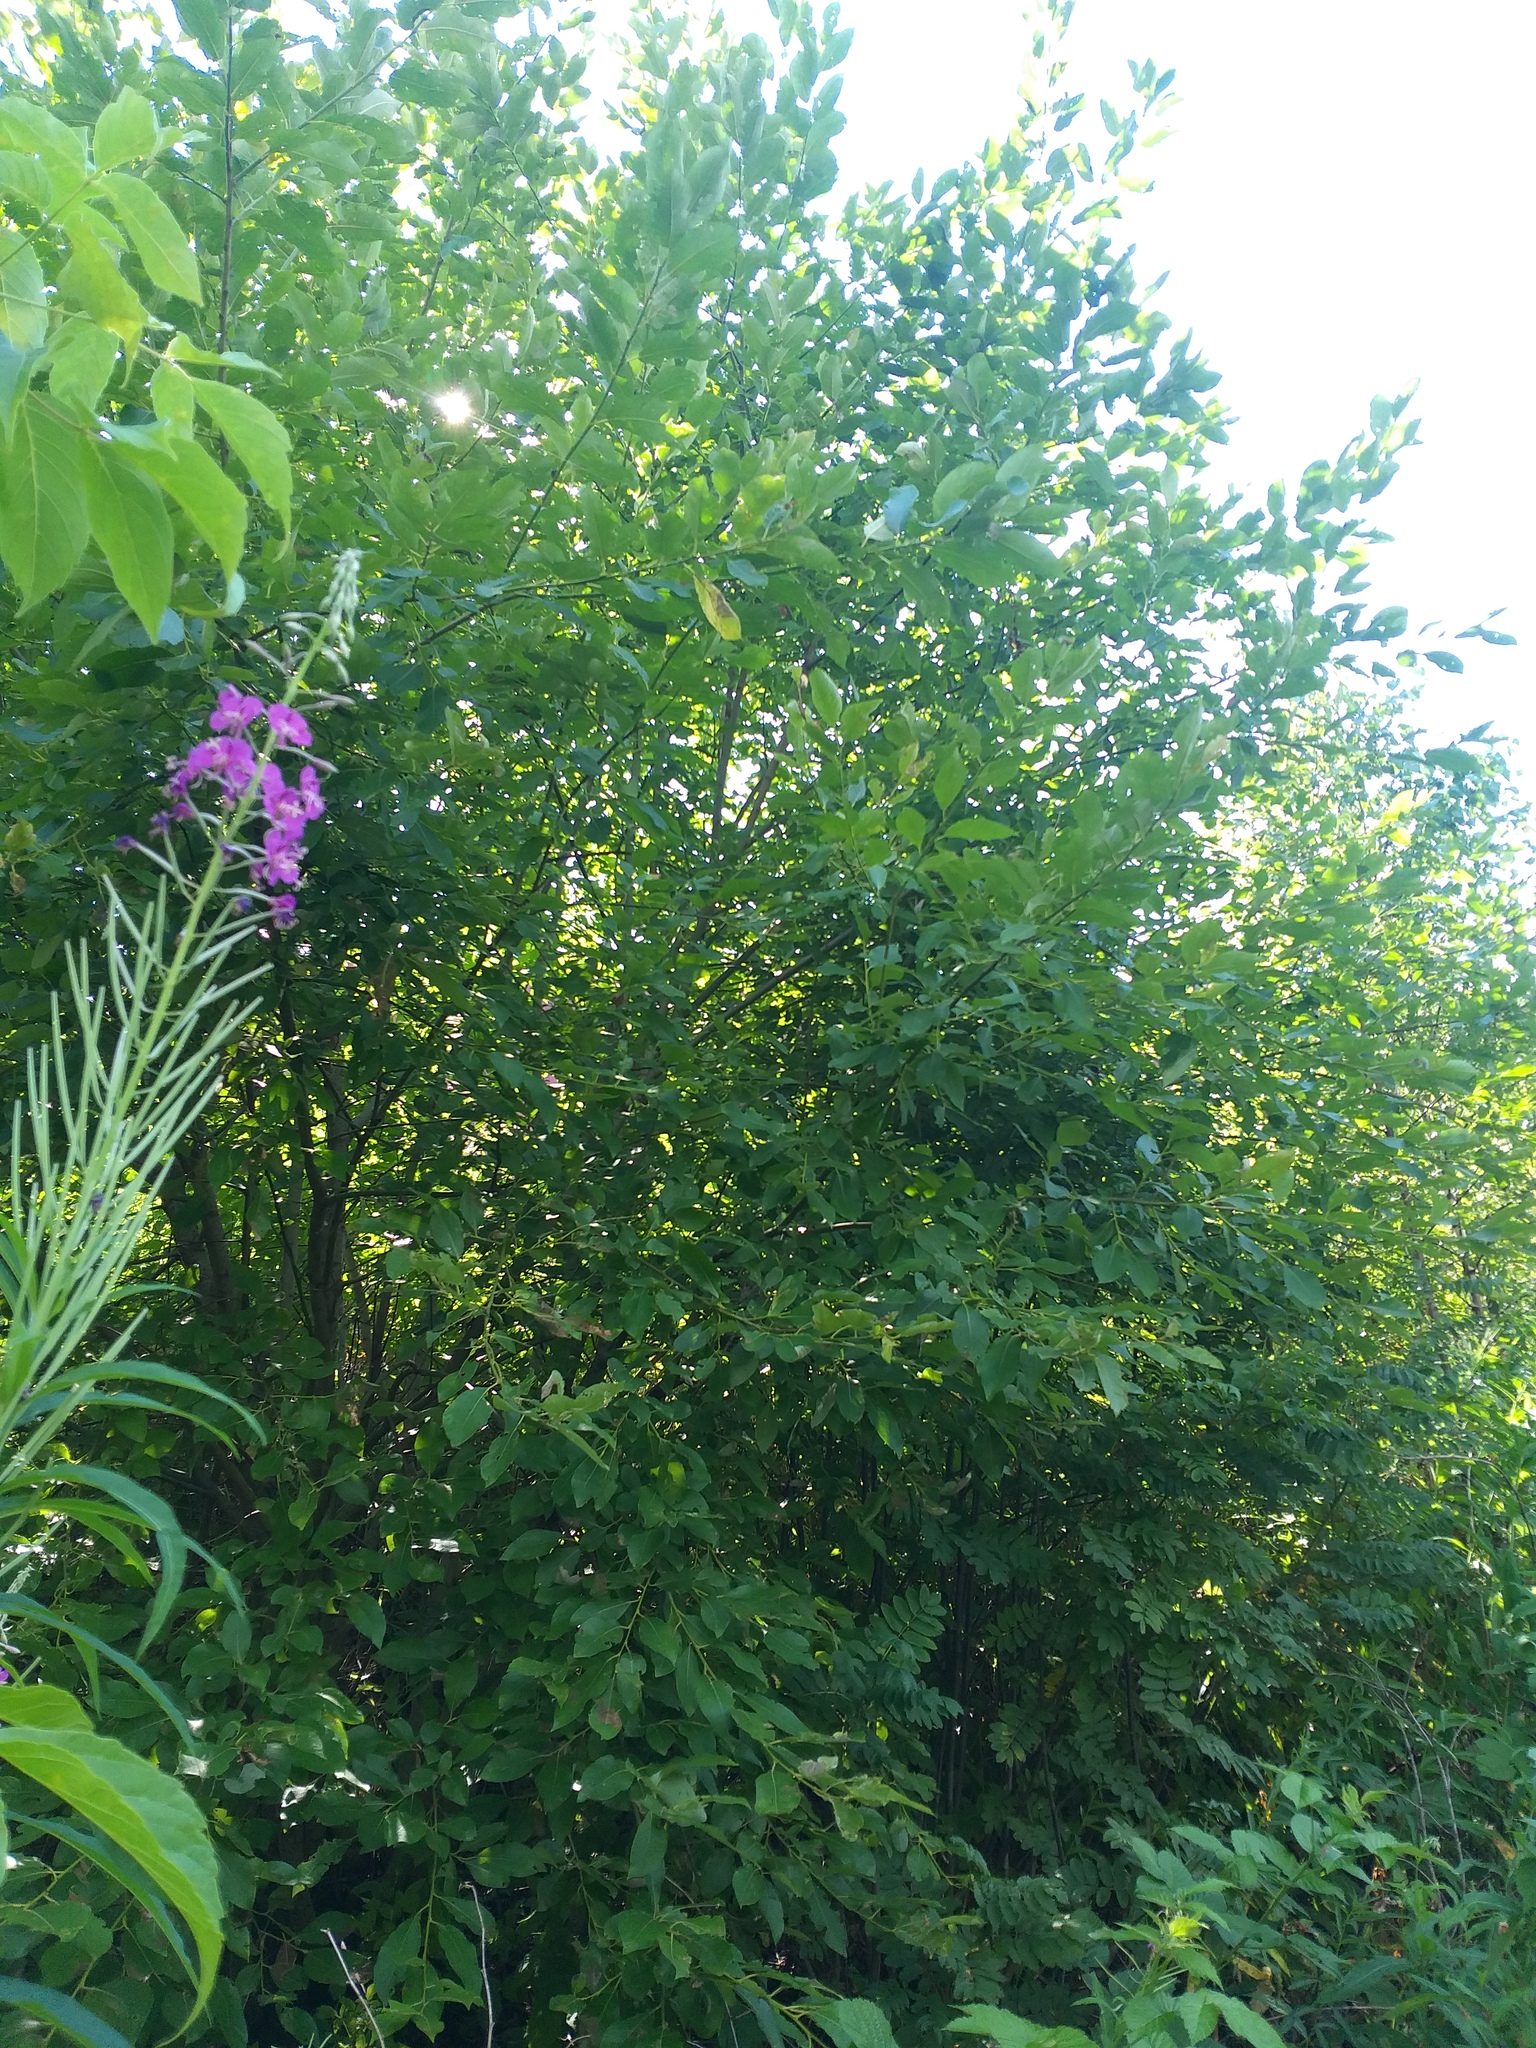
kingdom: Plantae
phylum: Tracheophyta
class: Magnoliopsida
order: Malpighiales
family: Salicaceae
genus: Salix
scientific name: Salix caprea
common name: Goat willow
